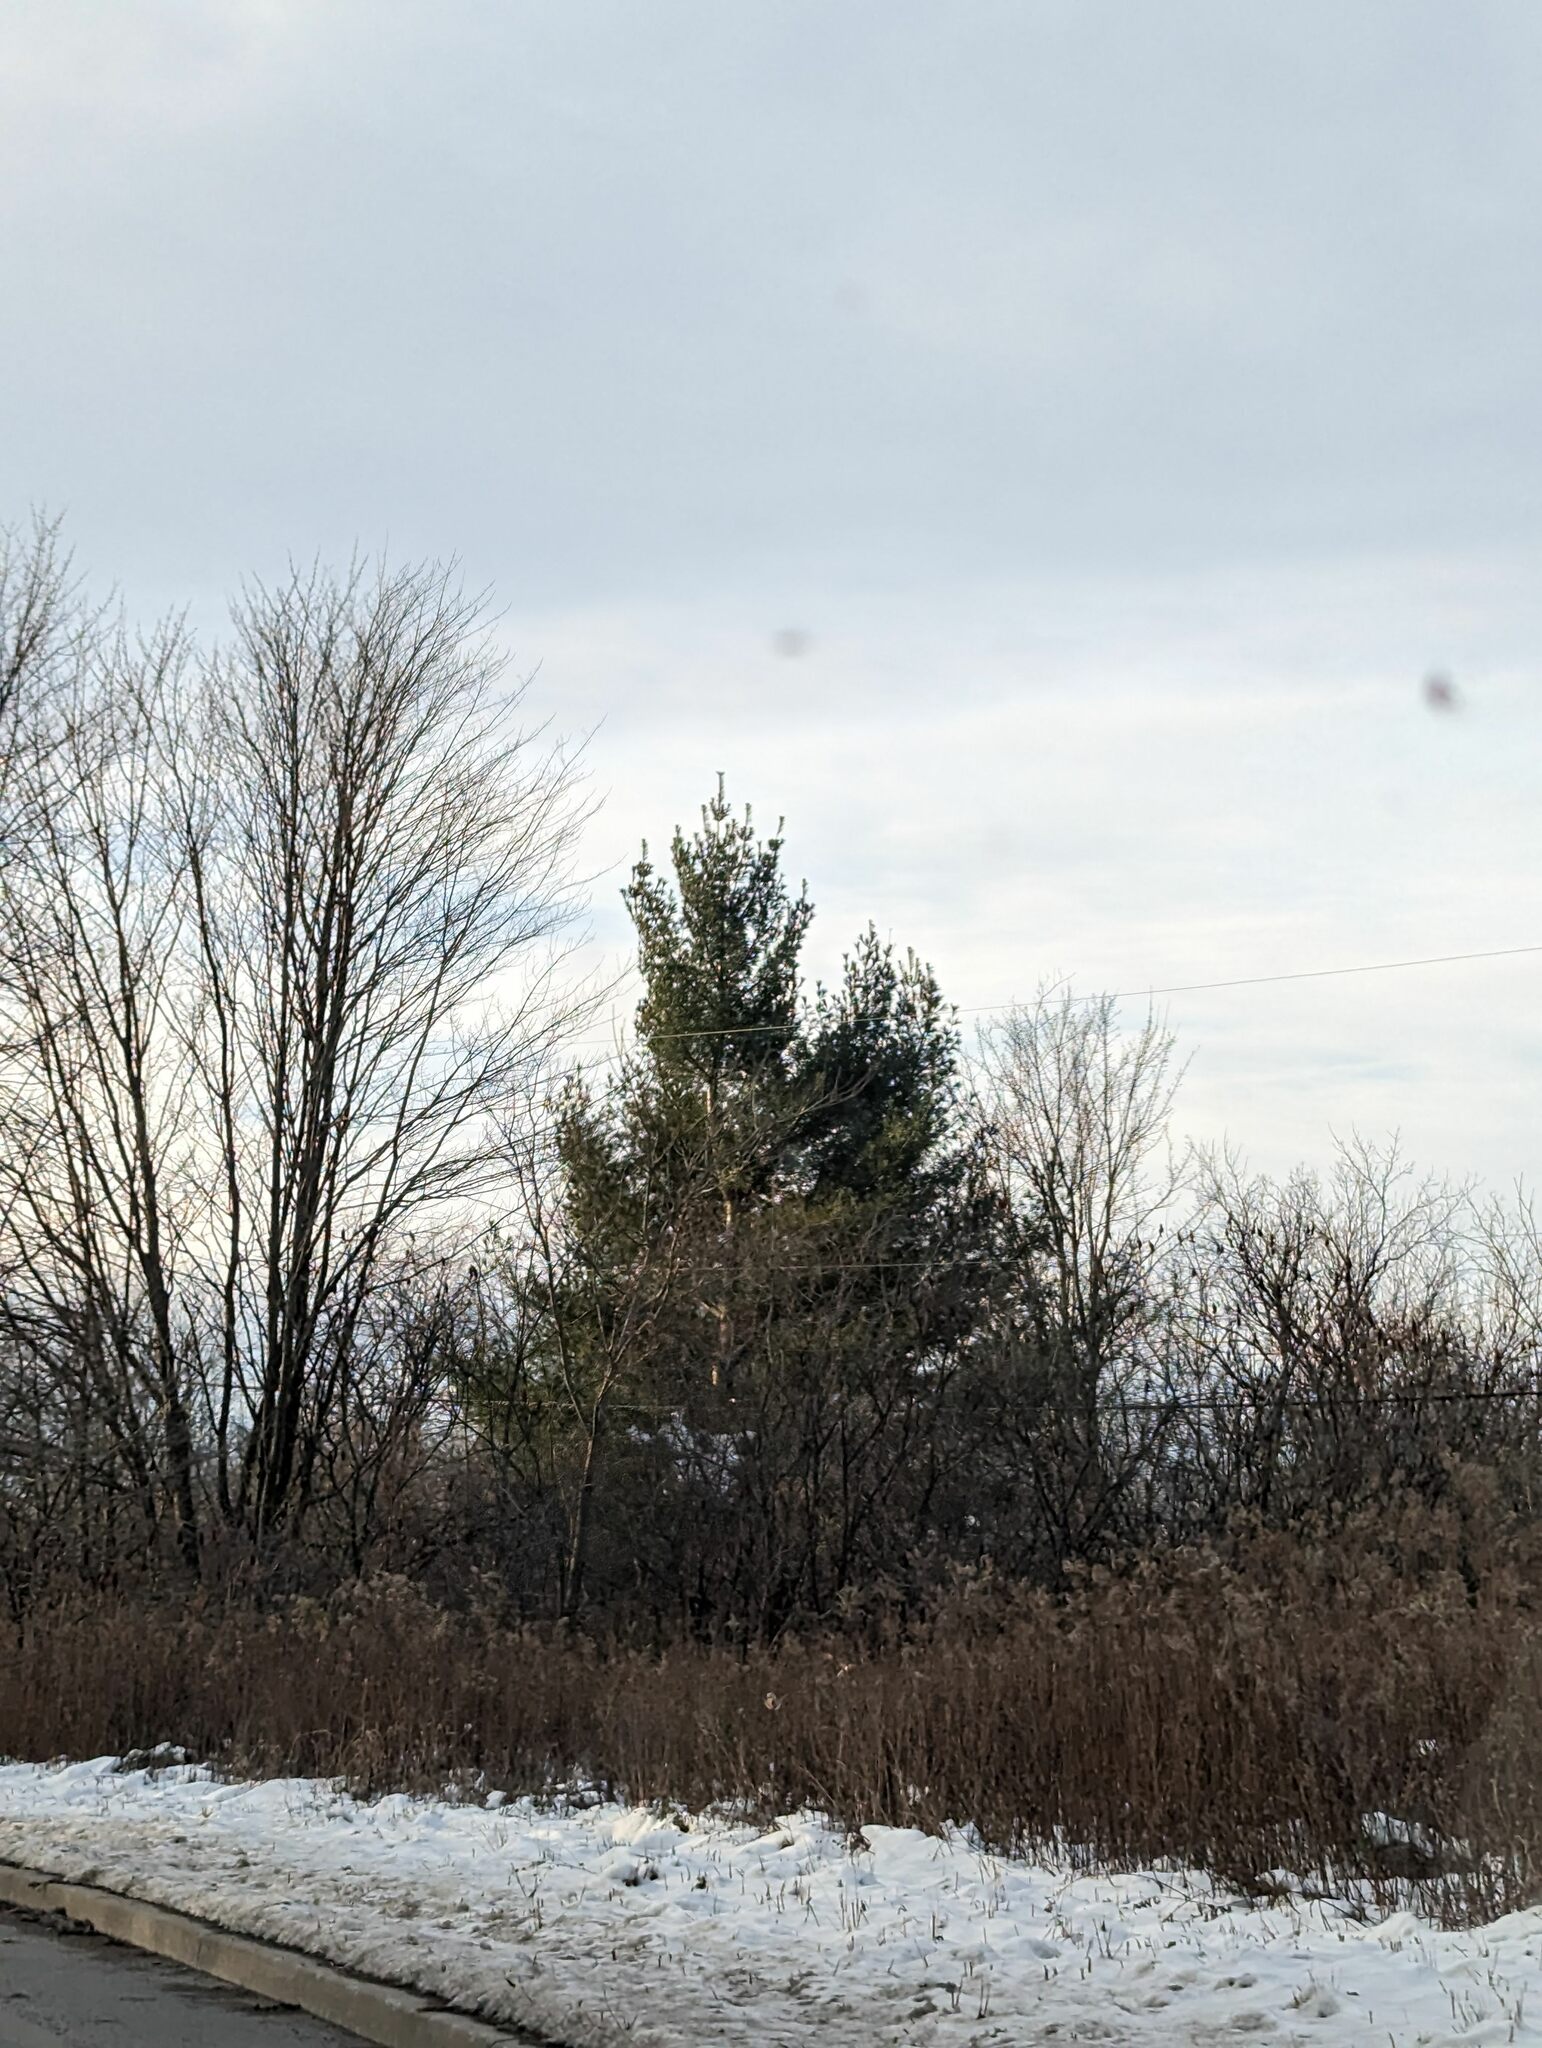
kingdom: Plantae
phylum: Tracheophyta
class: Pinopsida
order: Pinales
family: Pinaceae
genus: Pinus
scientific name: Pinus strobus
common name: Weymouth pine
